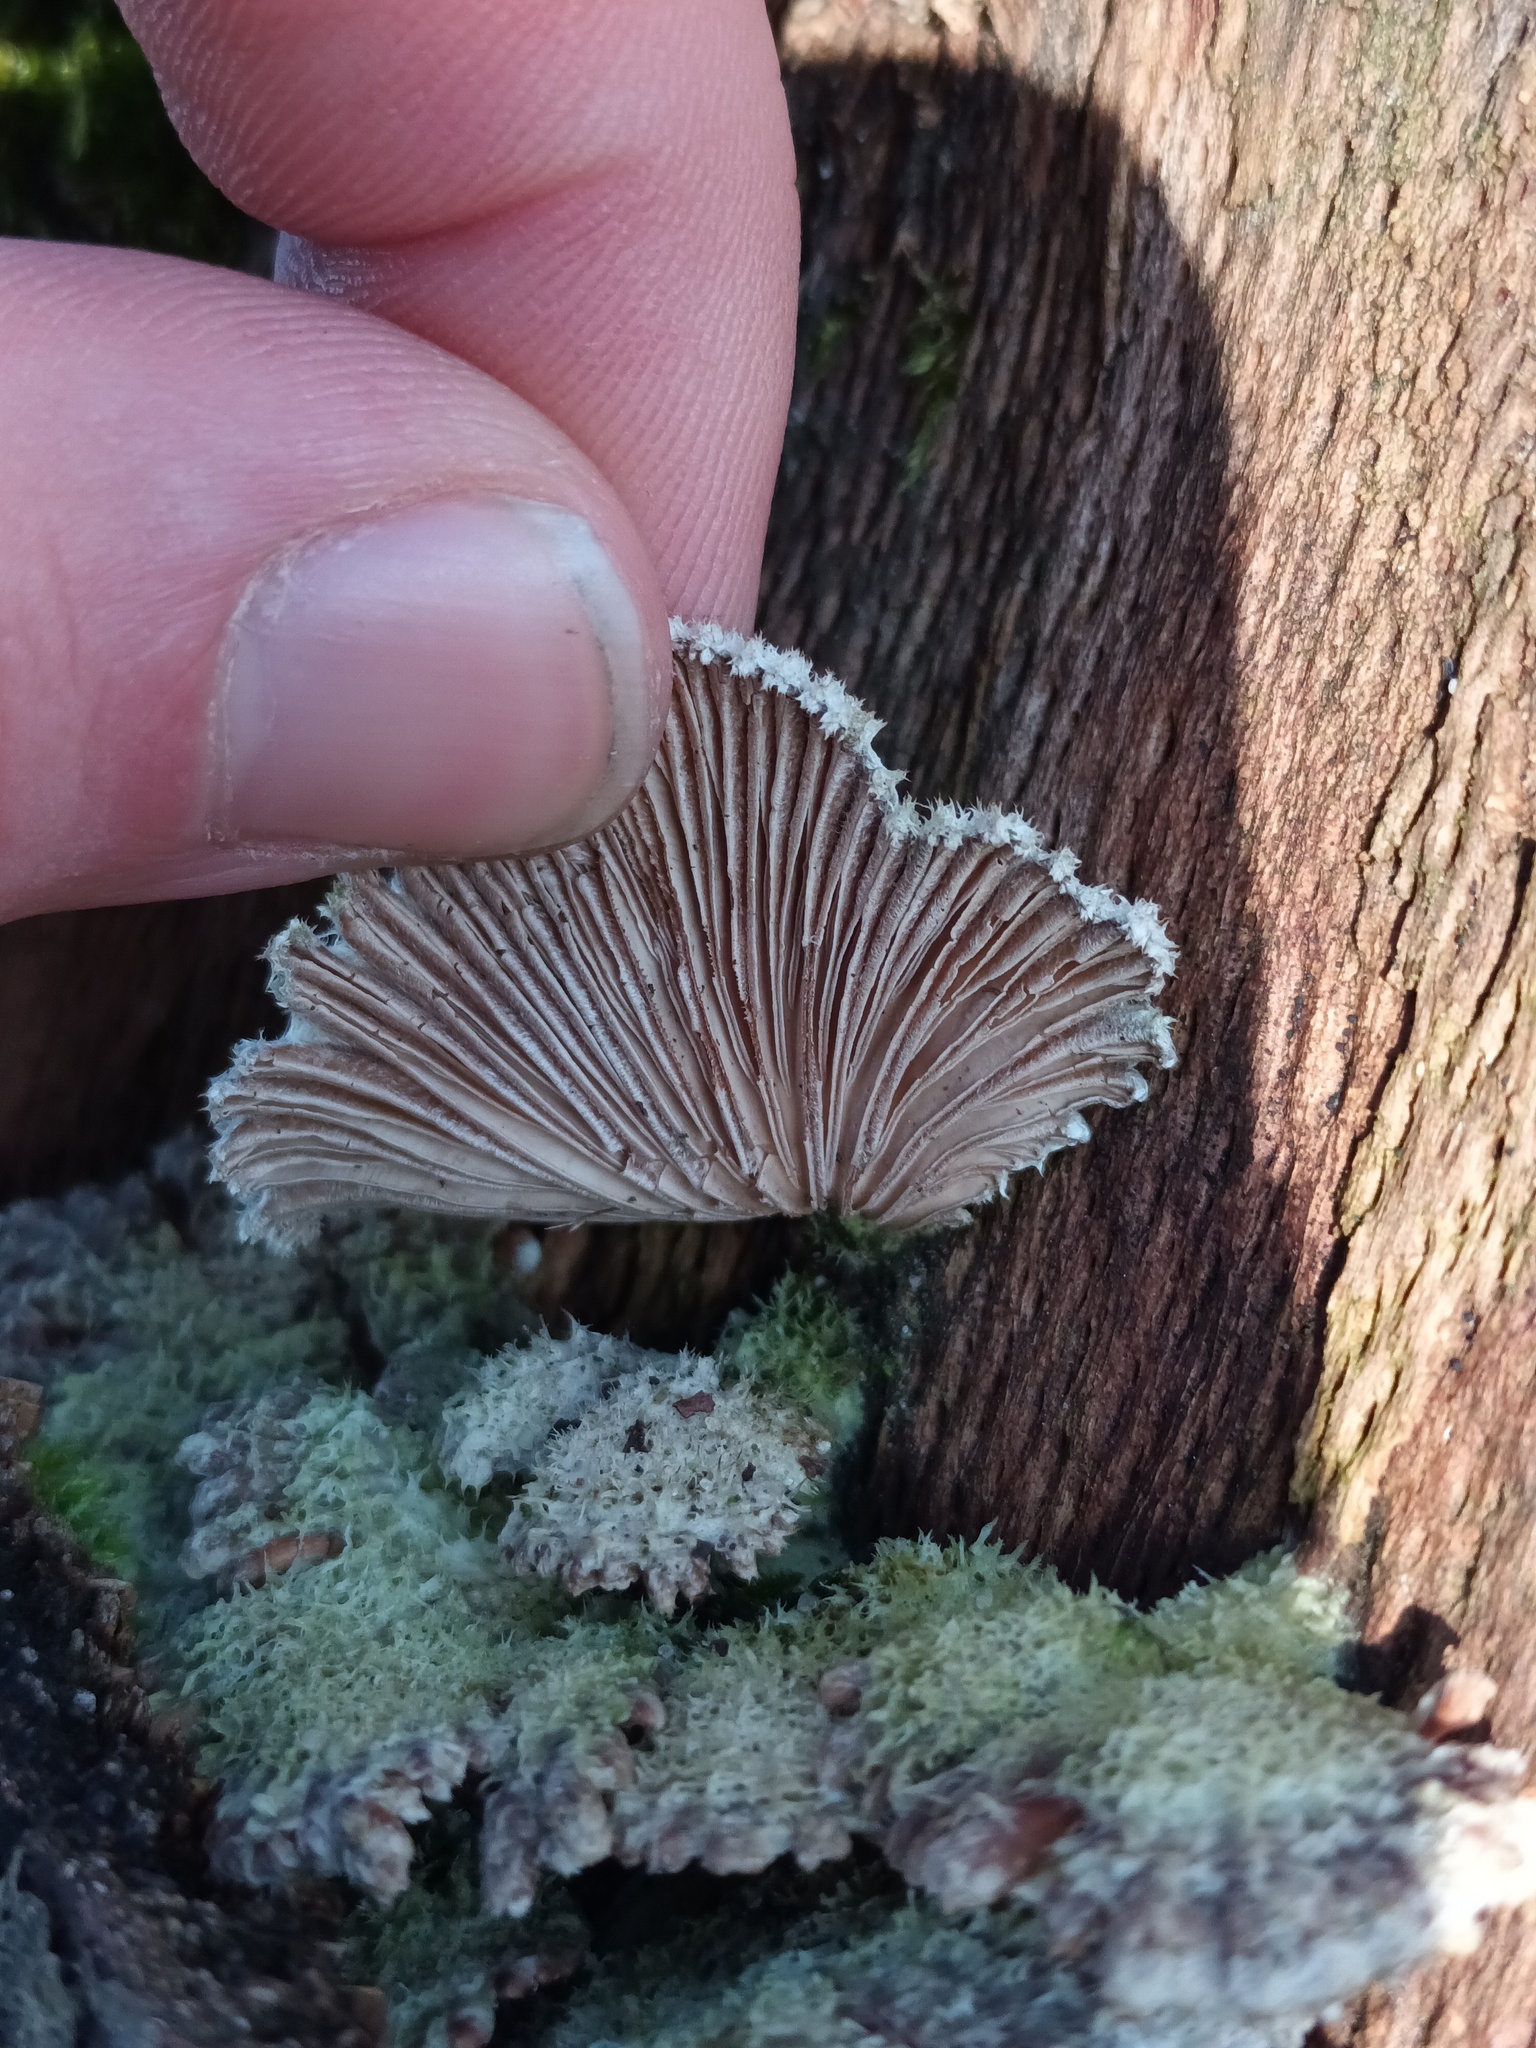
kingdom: Fungi
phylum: Basidiomycota
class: Agaricomycetes
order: Agaricales
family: Schizophyllaceae
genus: Schizophyllum
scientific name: Schizophyllum commune
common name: Common porecrust
